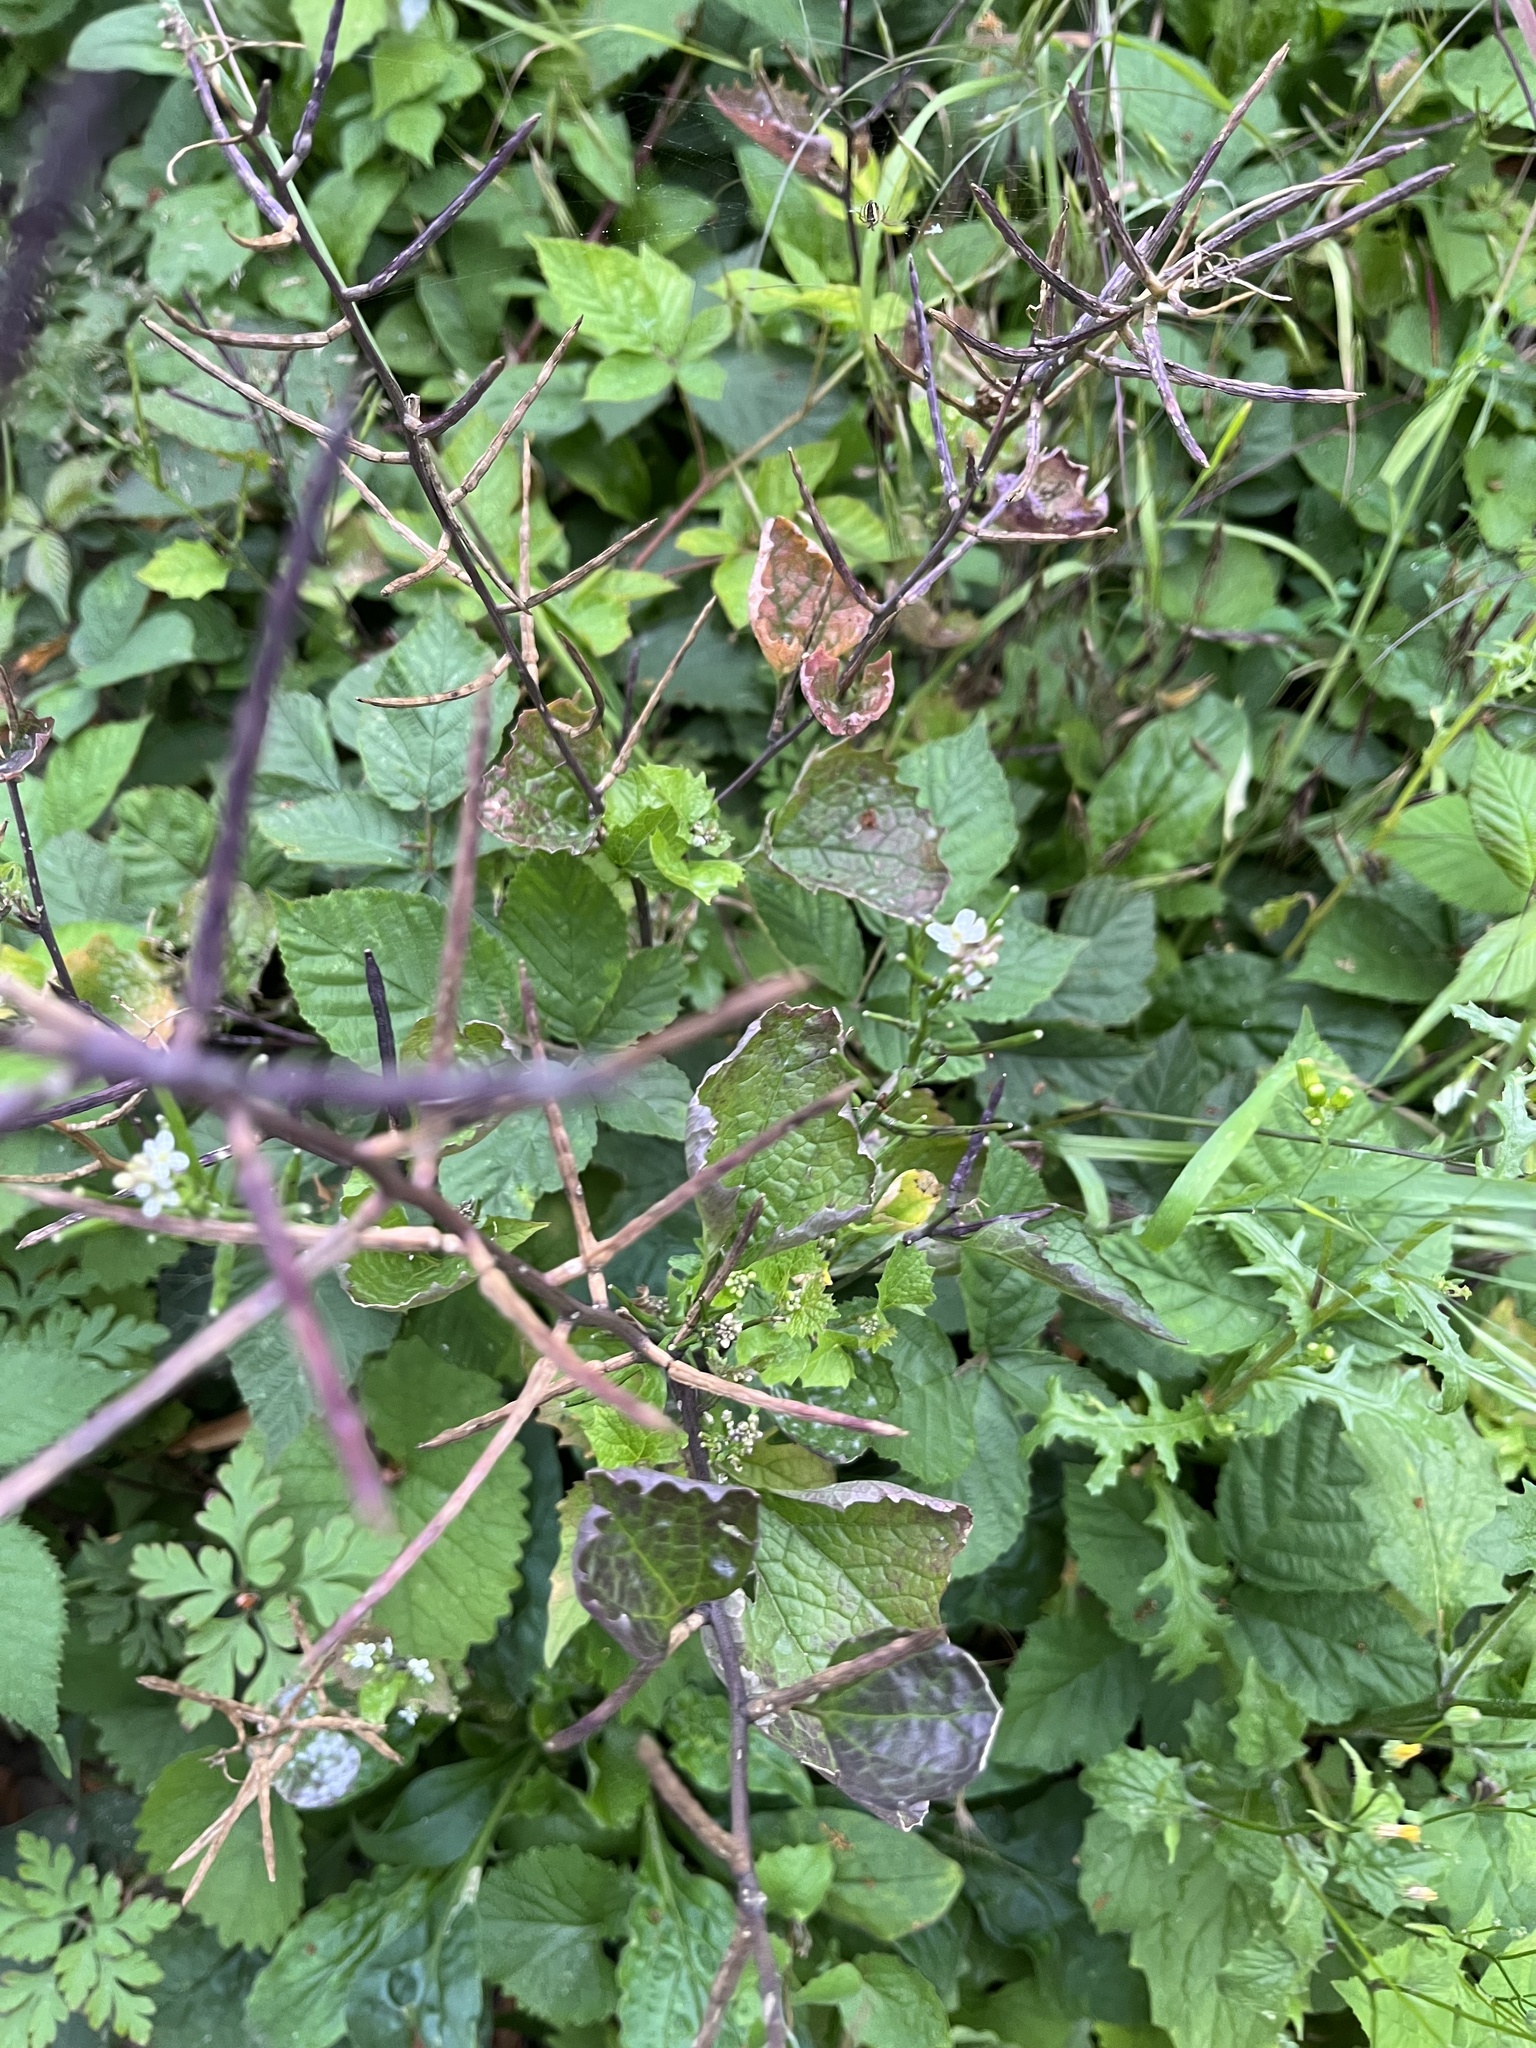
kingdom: Plantae
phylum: Tracheophyta
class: Magnoliopsida
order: Brassicales
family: Brassicaceae
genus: Alliaria
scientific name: Alliaria petiolata
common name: Garlic mustard
